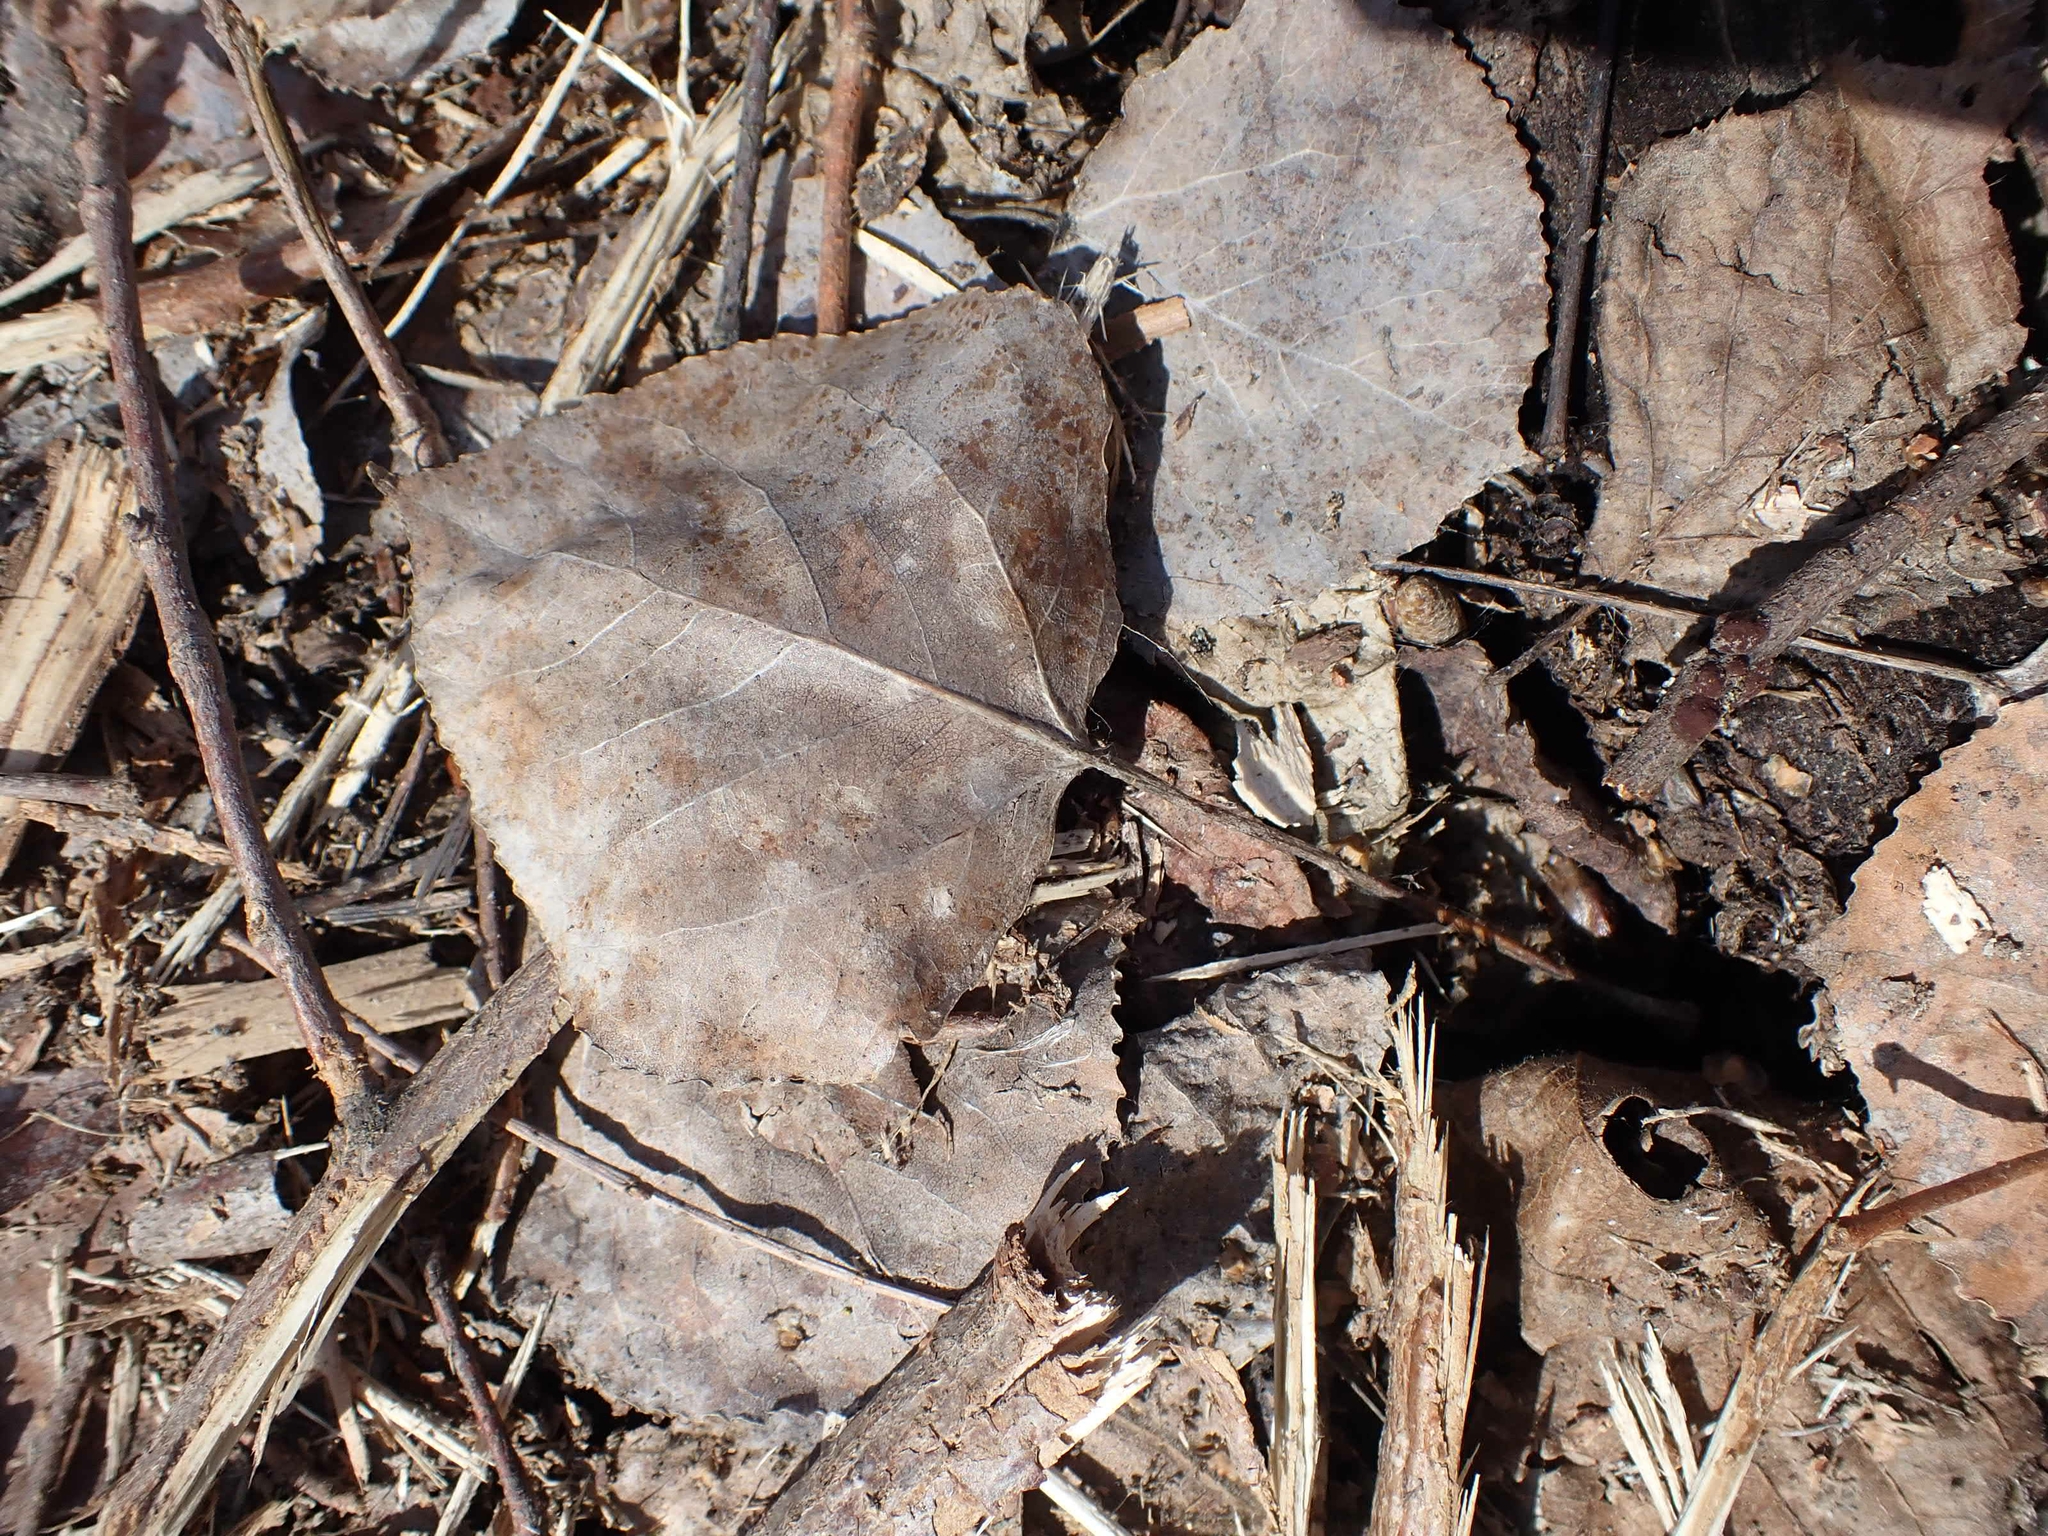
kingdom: Plantae
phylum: Tracheophyta
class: Magnoliopsida
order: Malpighiales
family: Salicaceae
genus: Populus
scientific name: Populus tremuloides
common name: Quaking aspen
